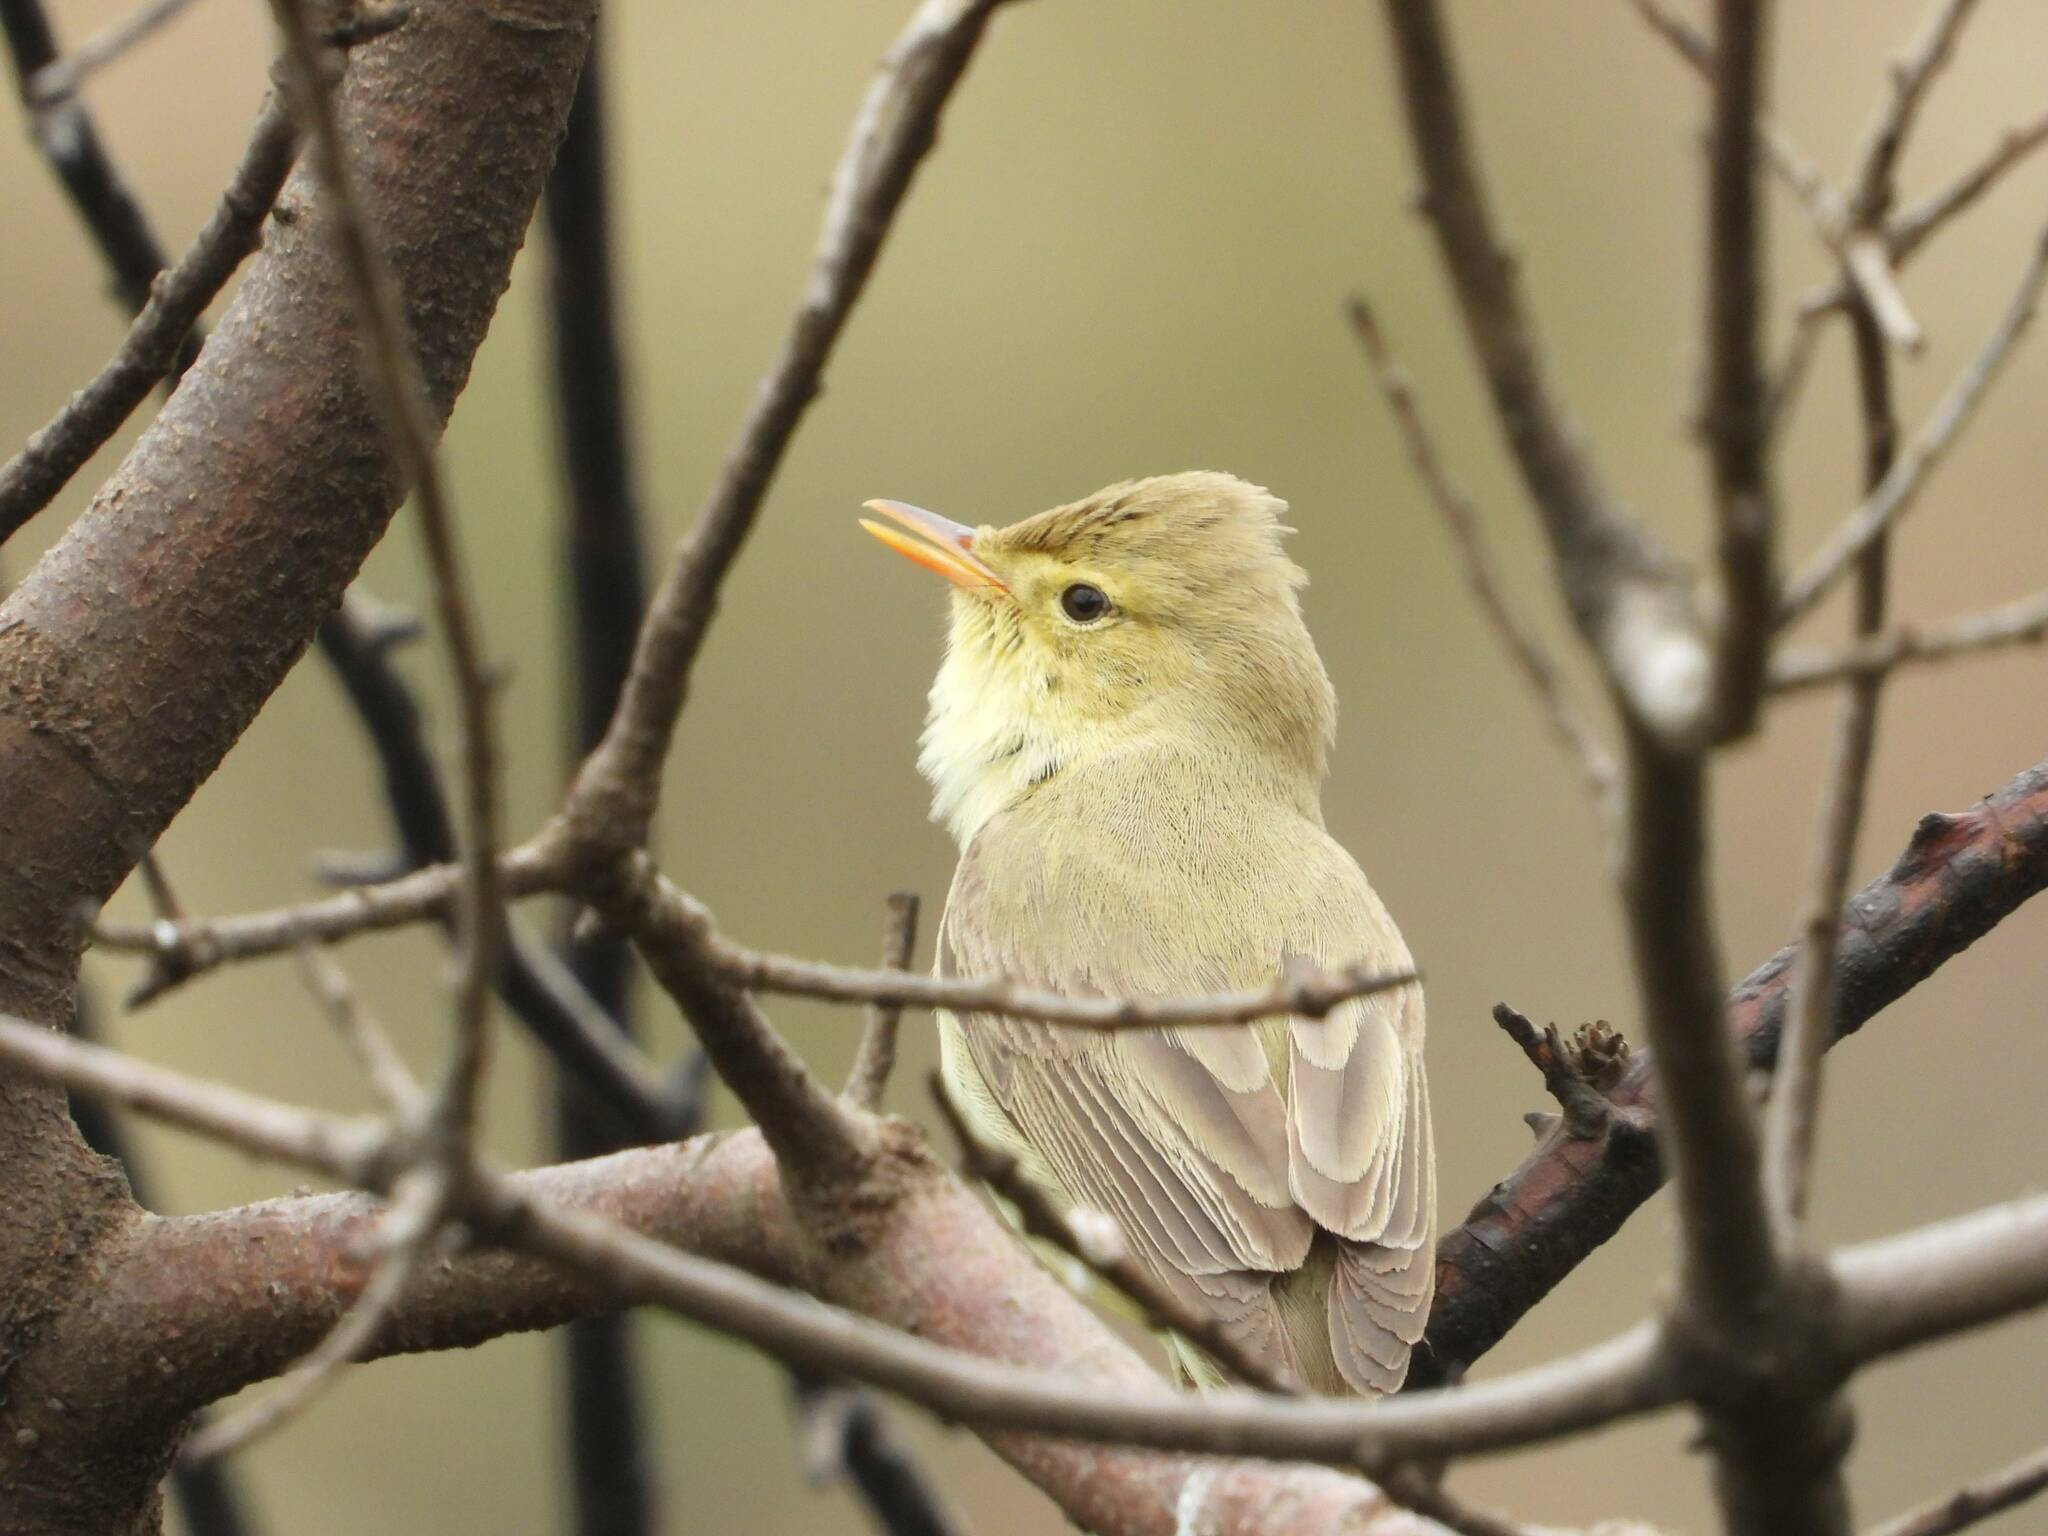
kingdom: Animalia
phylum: Chordata
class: Aves
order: Passeriformes
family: Acrocephalidae
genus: Hippolais
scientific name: Hippolais polyglotta
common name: Melodious warbler
